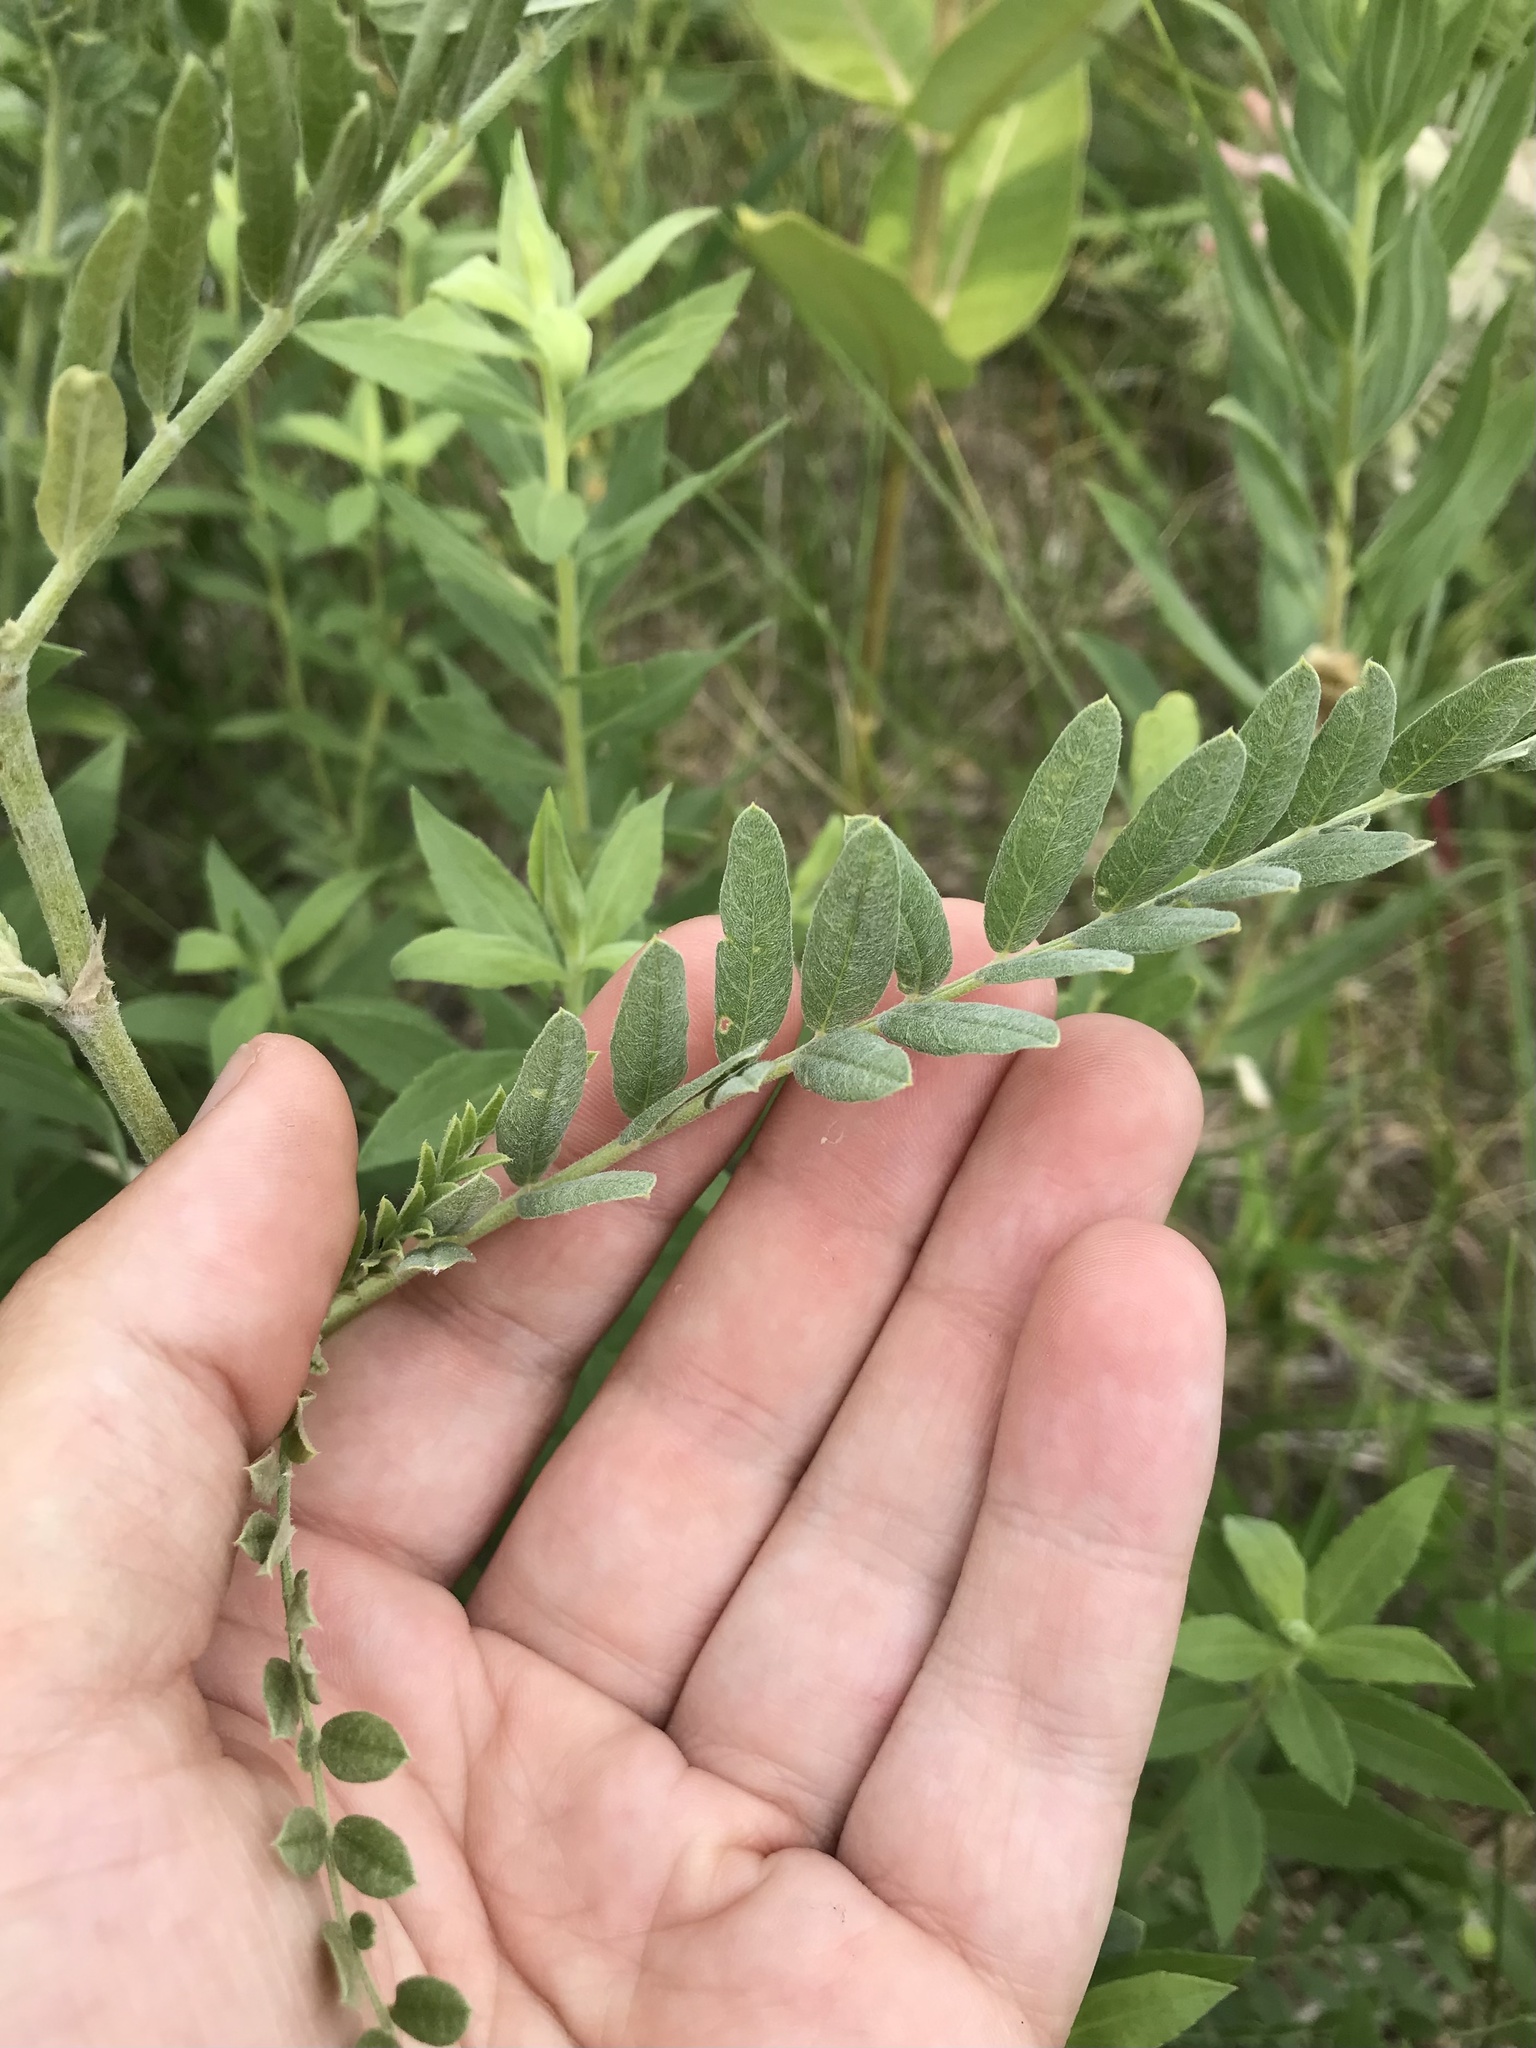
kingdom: Plantae
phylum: Tracheophyta
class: Magnoliopsida
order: Fabales
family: Fabaceae
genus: Astragalus
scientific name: Astragalus canadensis
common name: Canada milk-vetch
